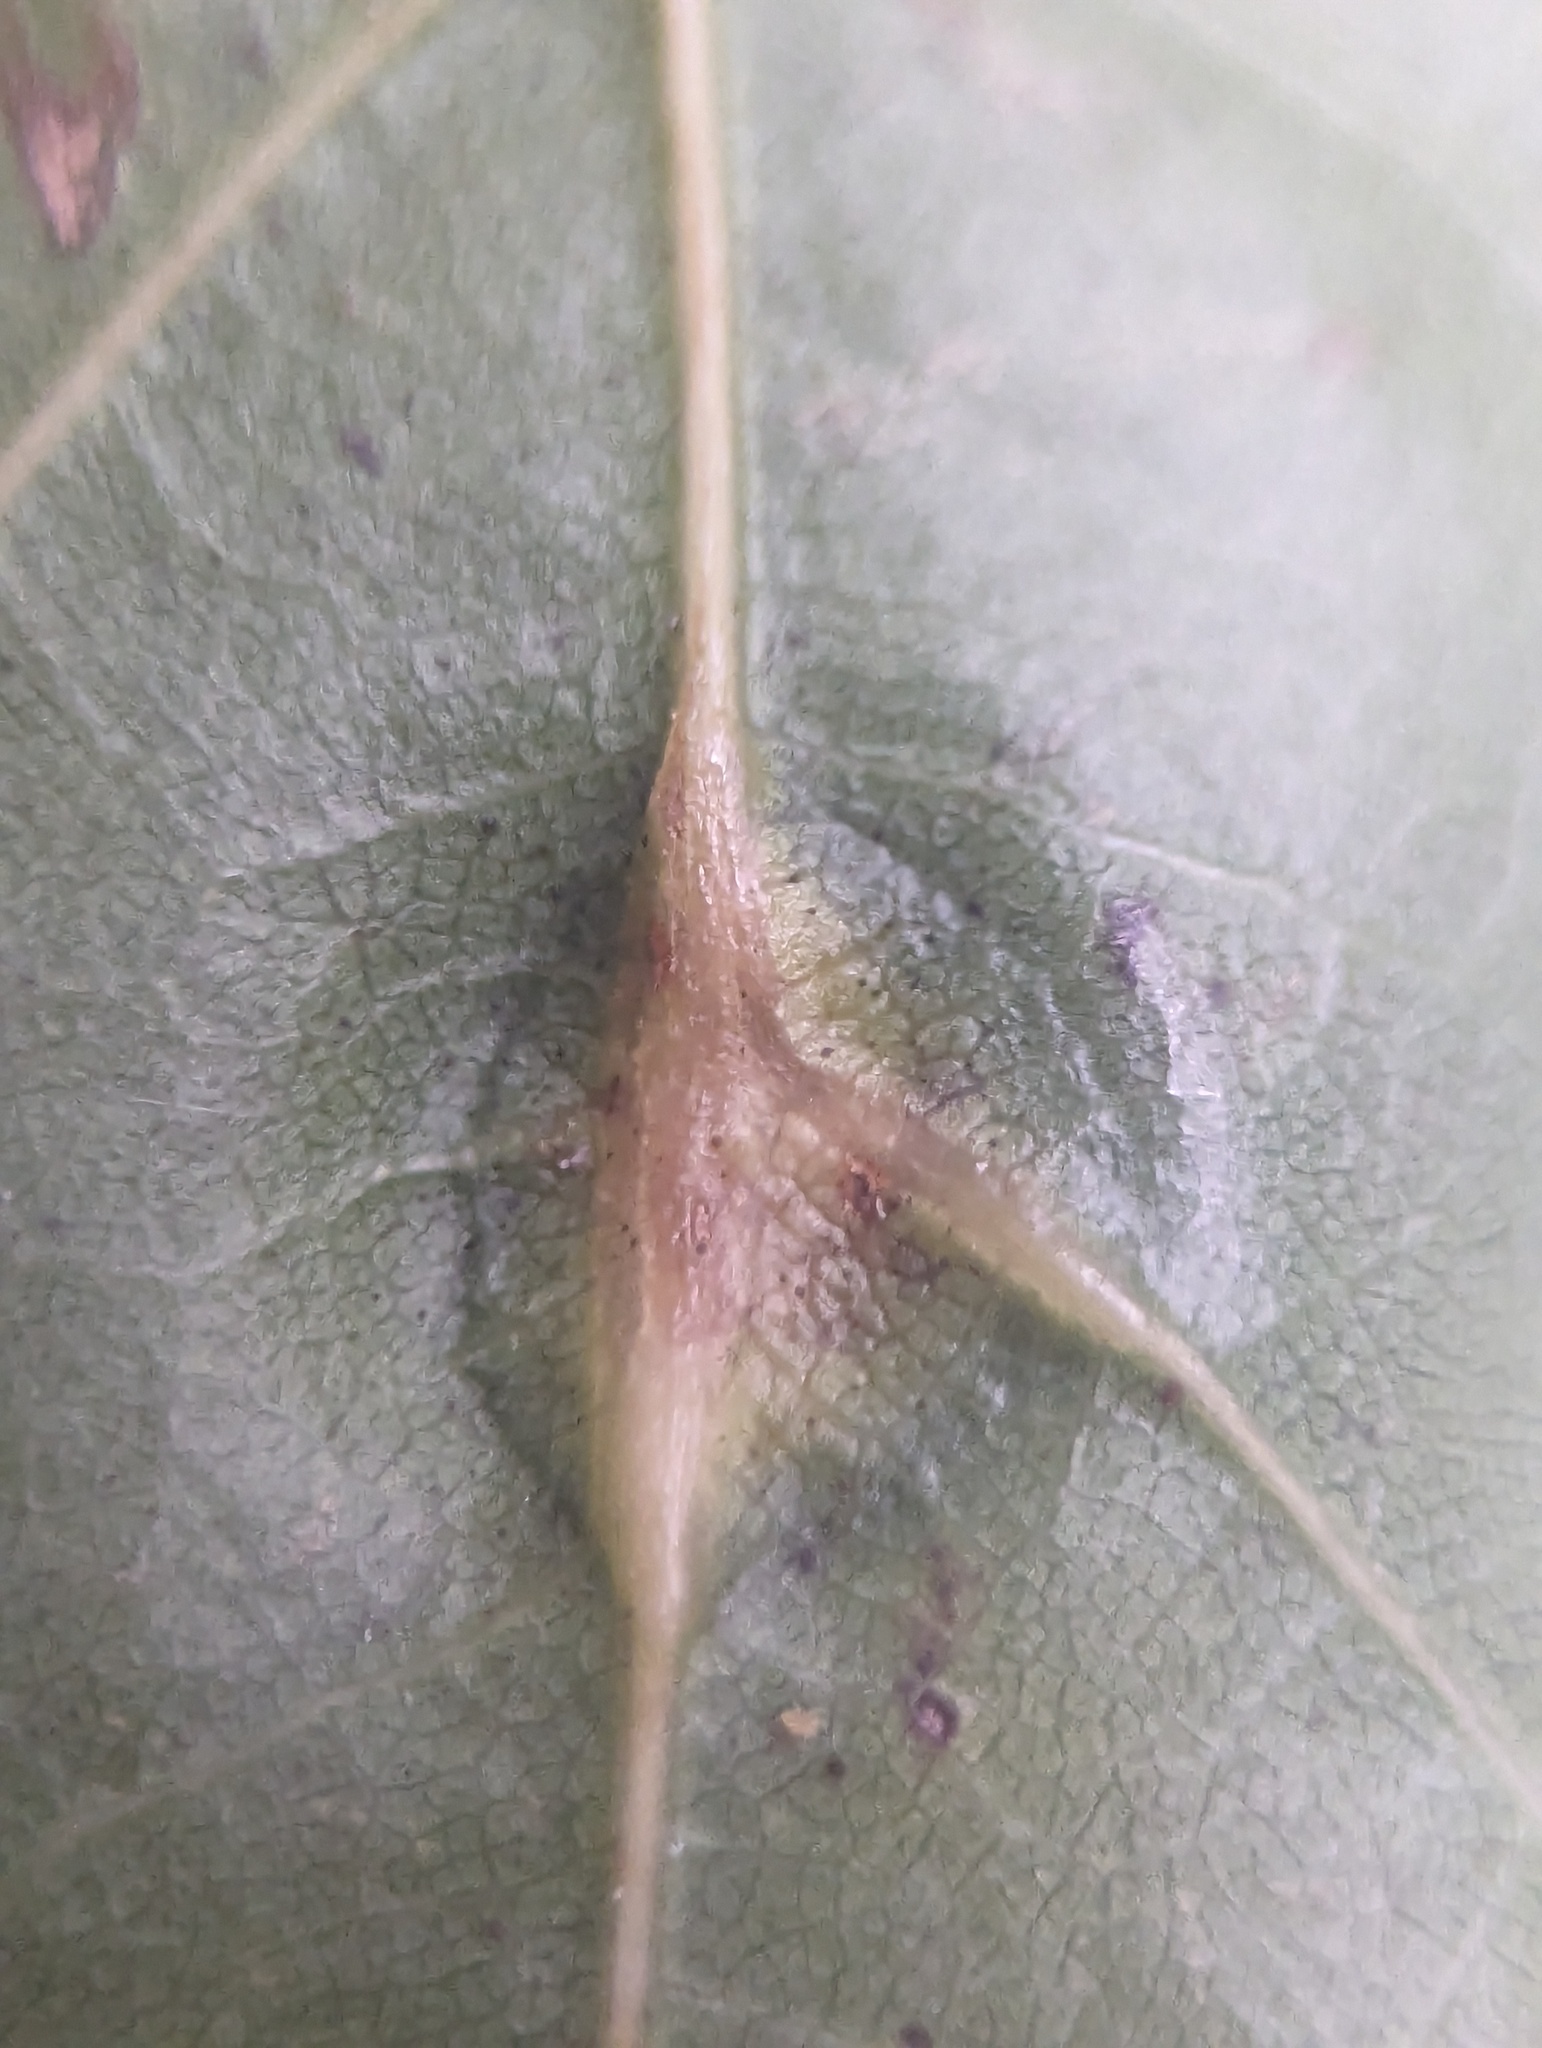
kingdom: Animalia
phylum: Arthropoda
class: Insecta
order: Diptera
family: Cecidomyiidae
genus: Polystepha
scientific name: Polystepha pilulae
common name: Oak leaf gall midge
